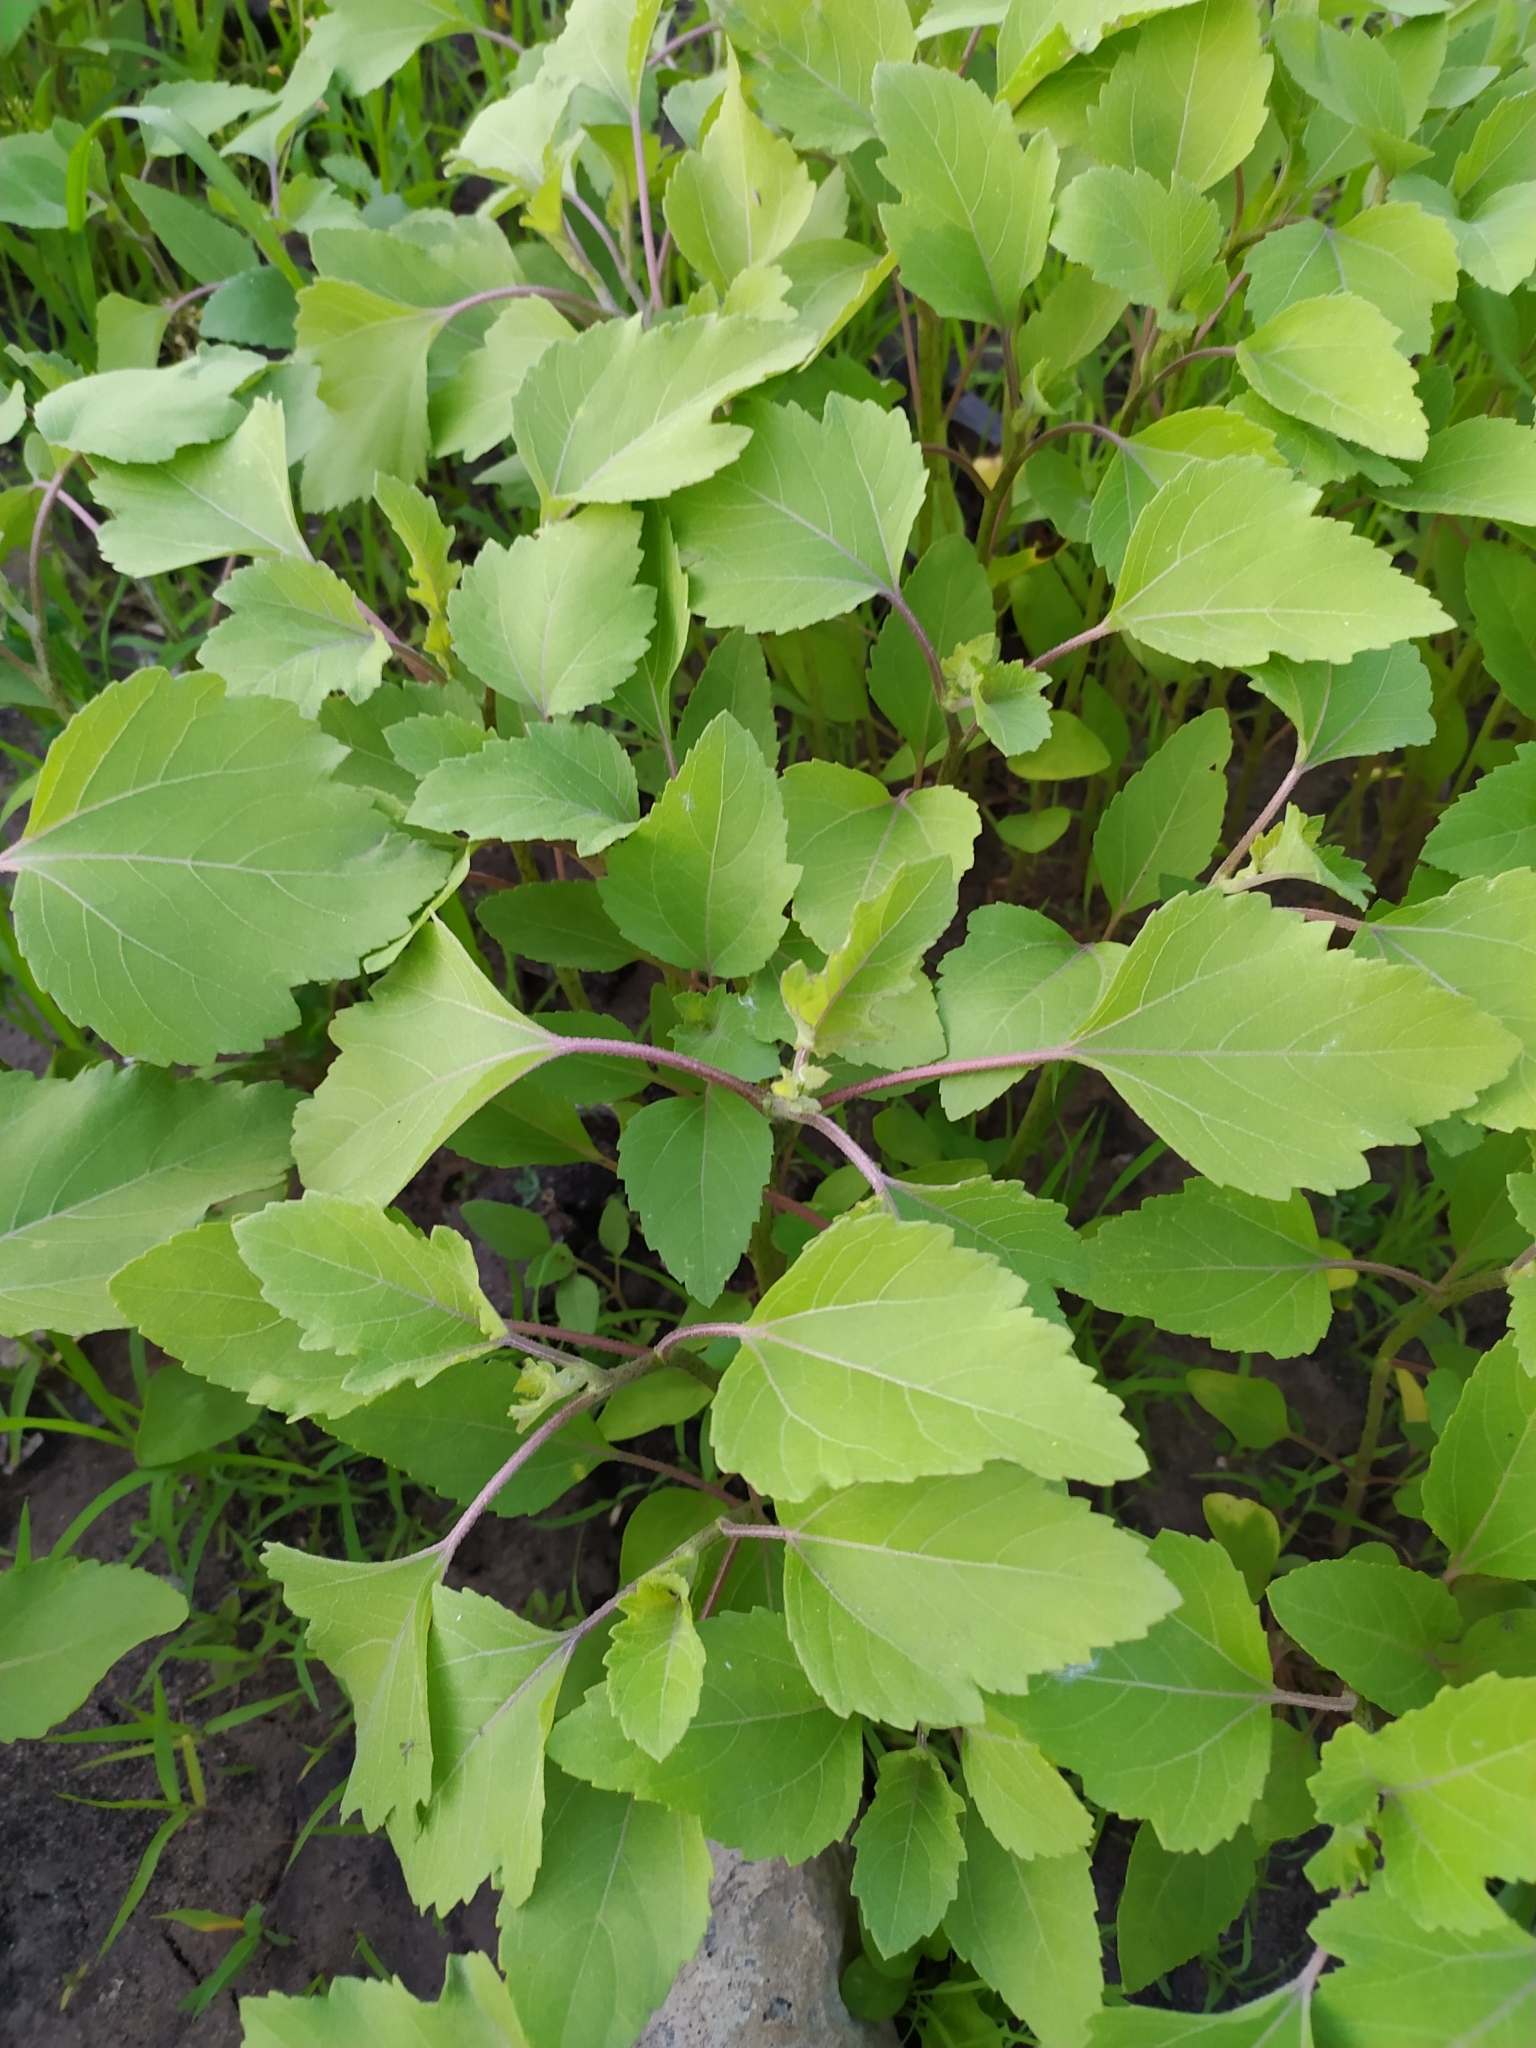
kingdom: Plantae
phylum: Tracheophyta
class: Magnoliopsida
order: Asterales
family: Asteraceae
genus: Xanthium
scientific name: Xanthium orientale
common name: Californian burr
